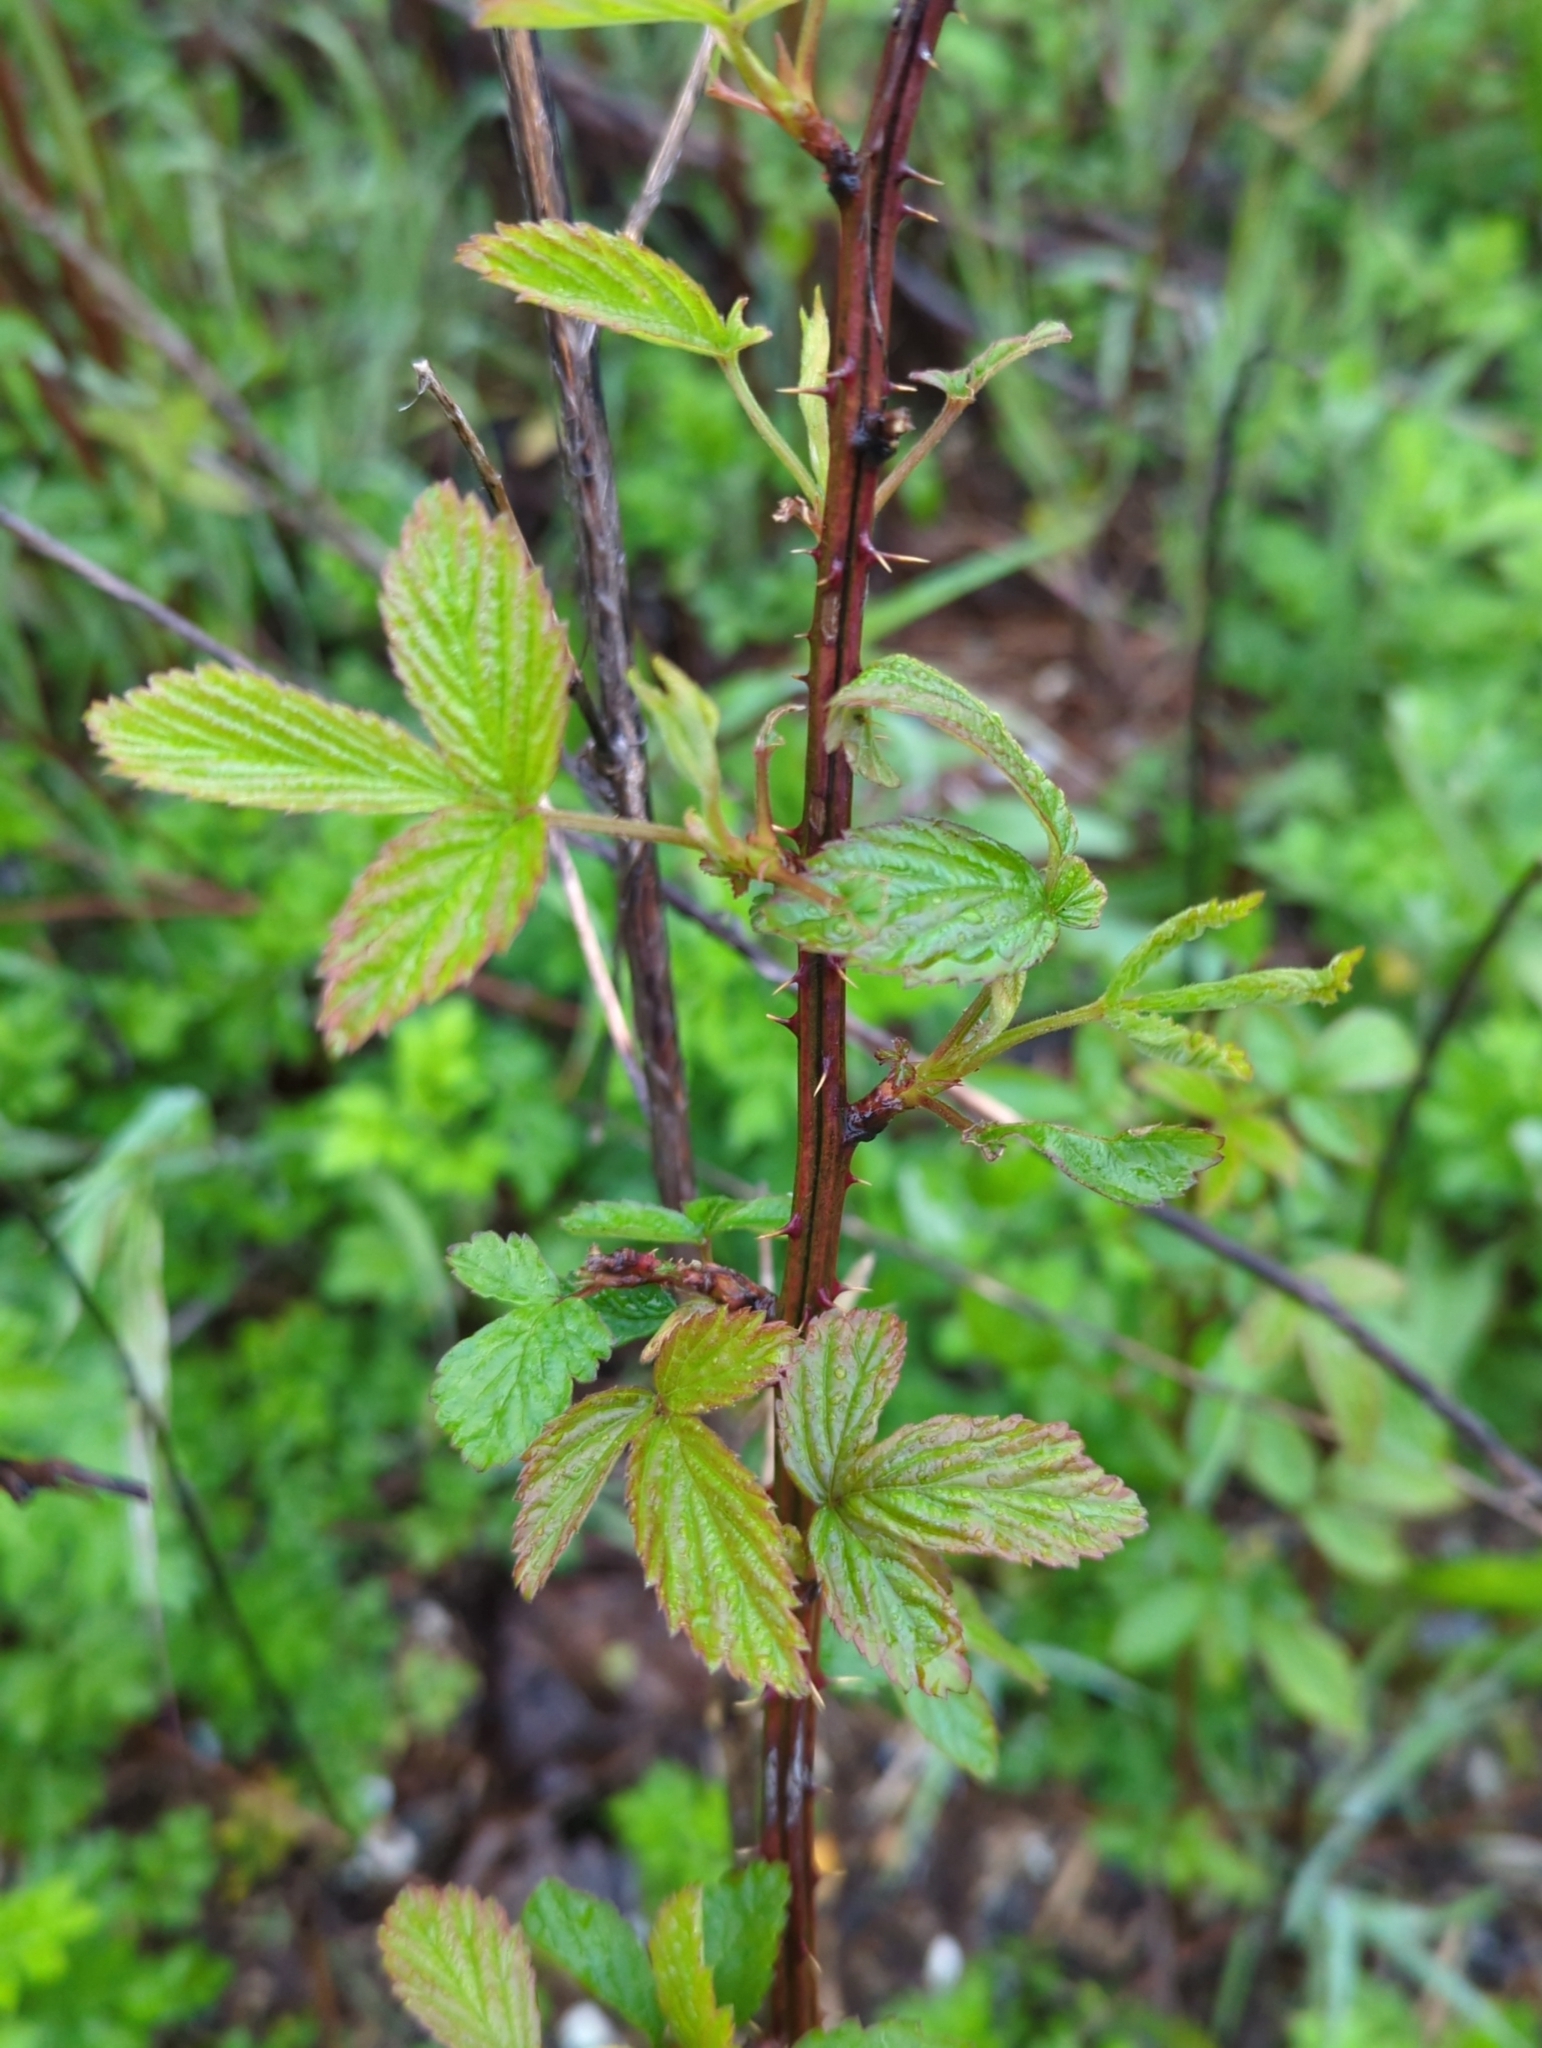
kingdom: Plantae
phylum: Tracheophyta
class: Magnoliopsida
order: Rosales
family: Rosaceae
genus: Rubus
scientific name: Rubus allegheniensis
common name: Allegheny blackberry
